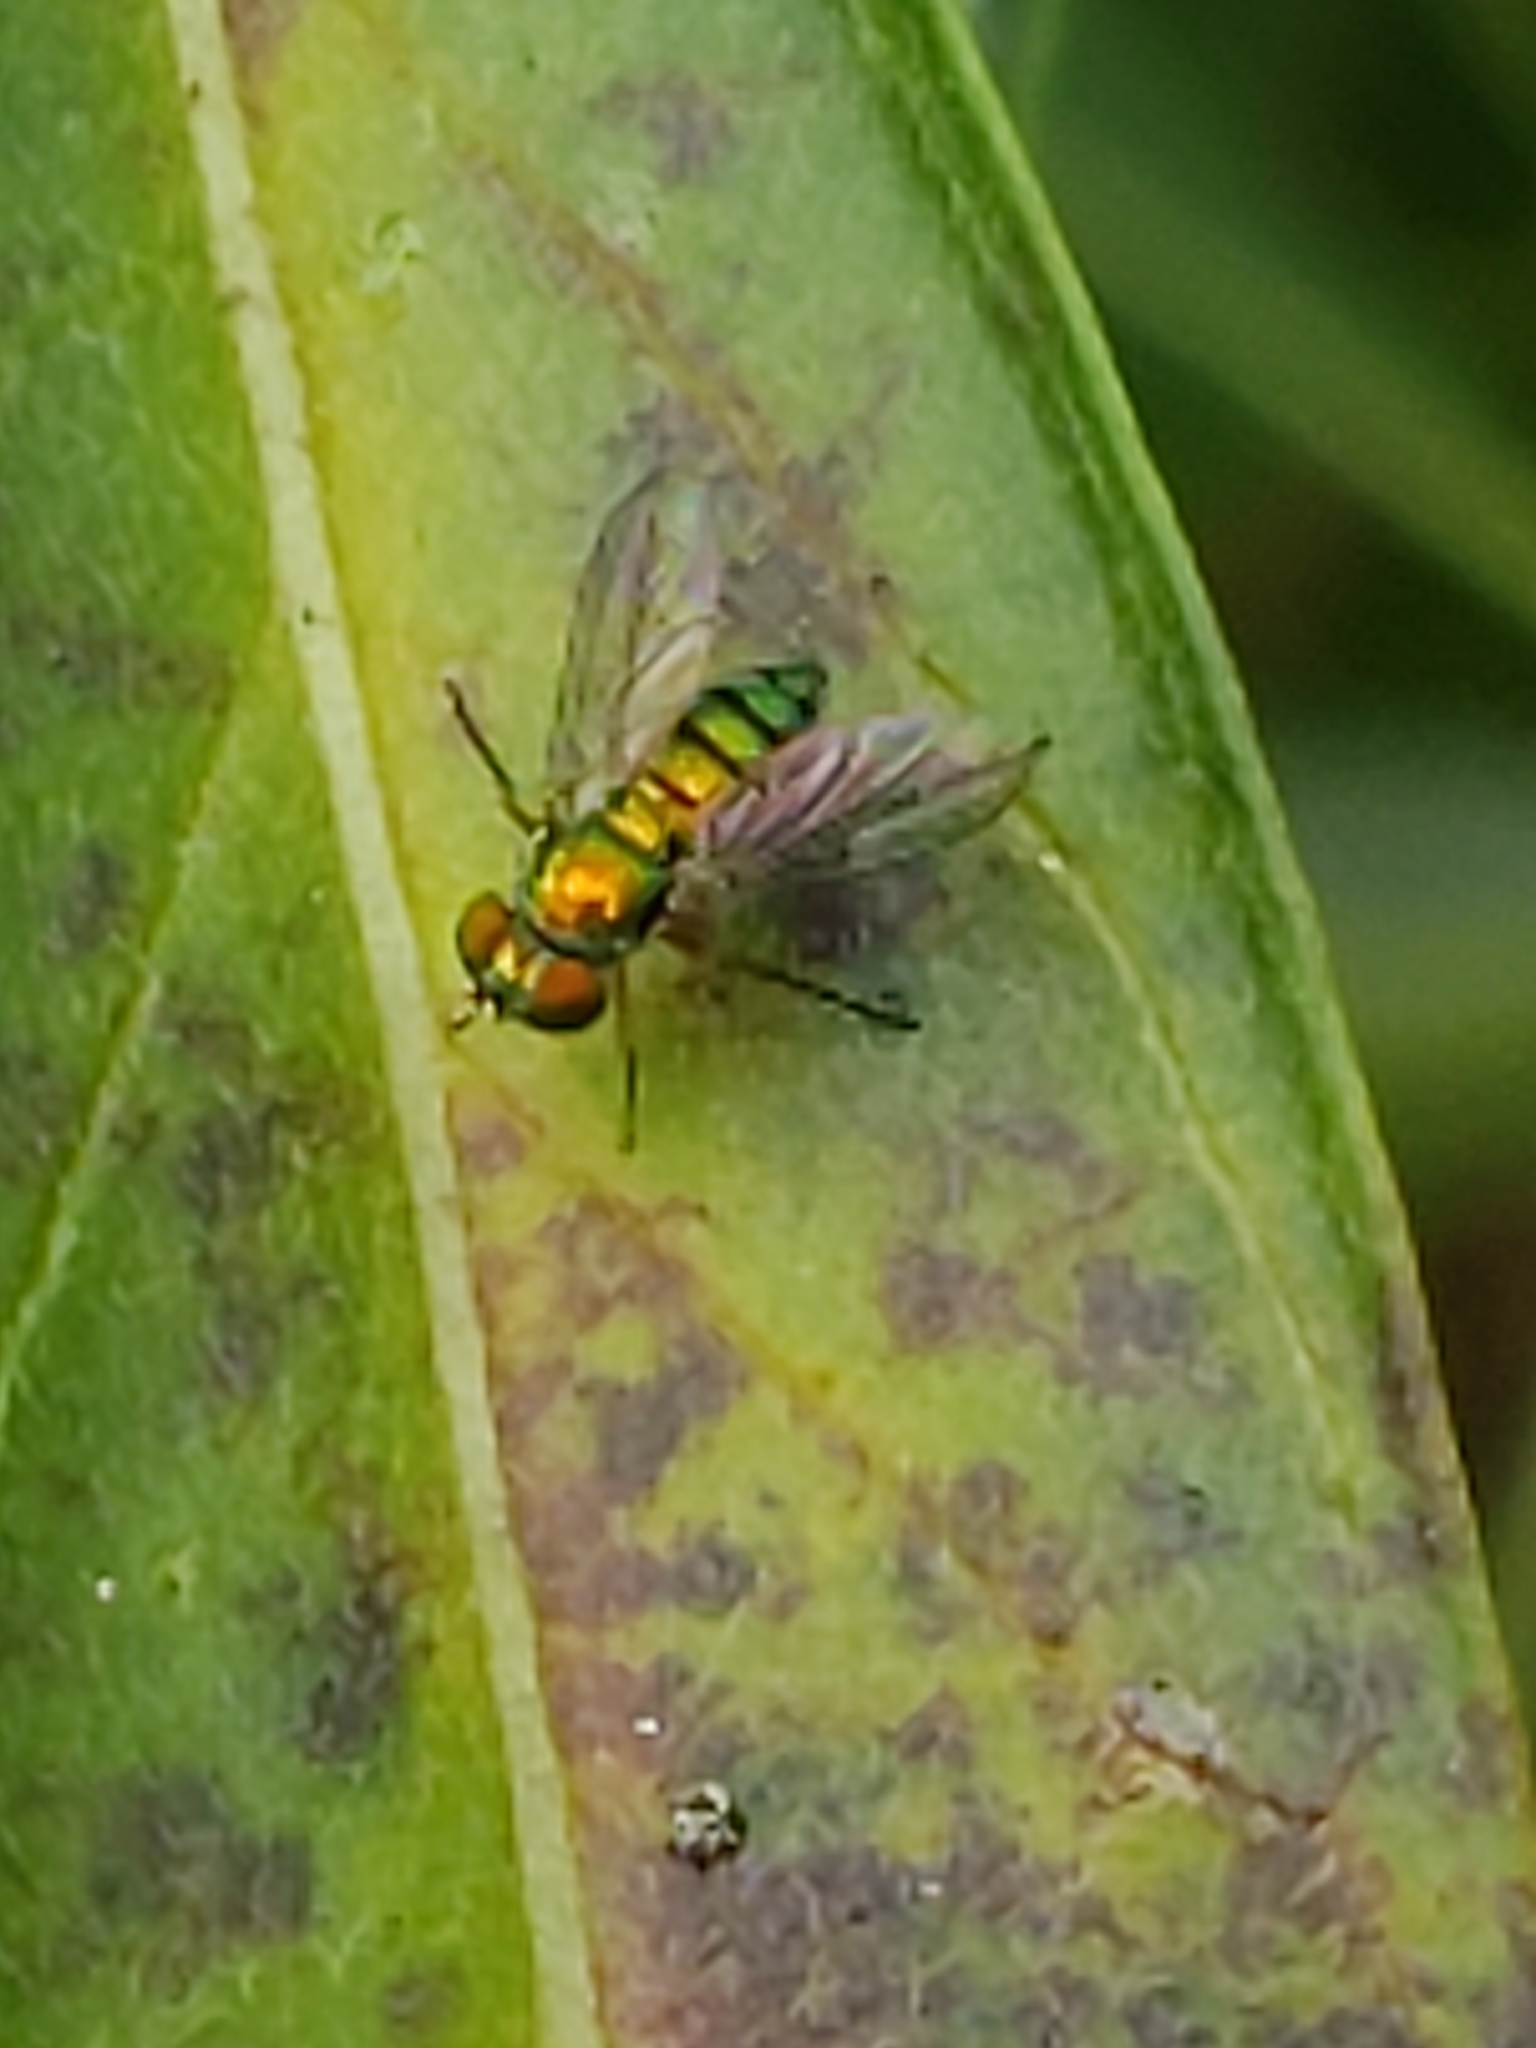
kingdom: Animalia
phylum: Arthropoda
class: Insecta
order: Diptera
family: Dolichopodidae
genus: Condylostylus
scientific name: Condylostylus
